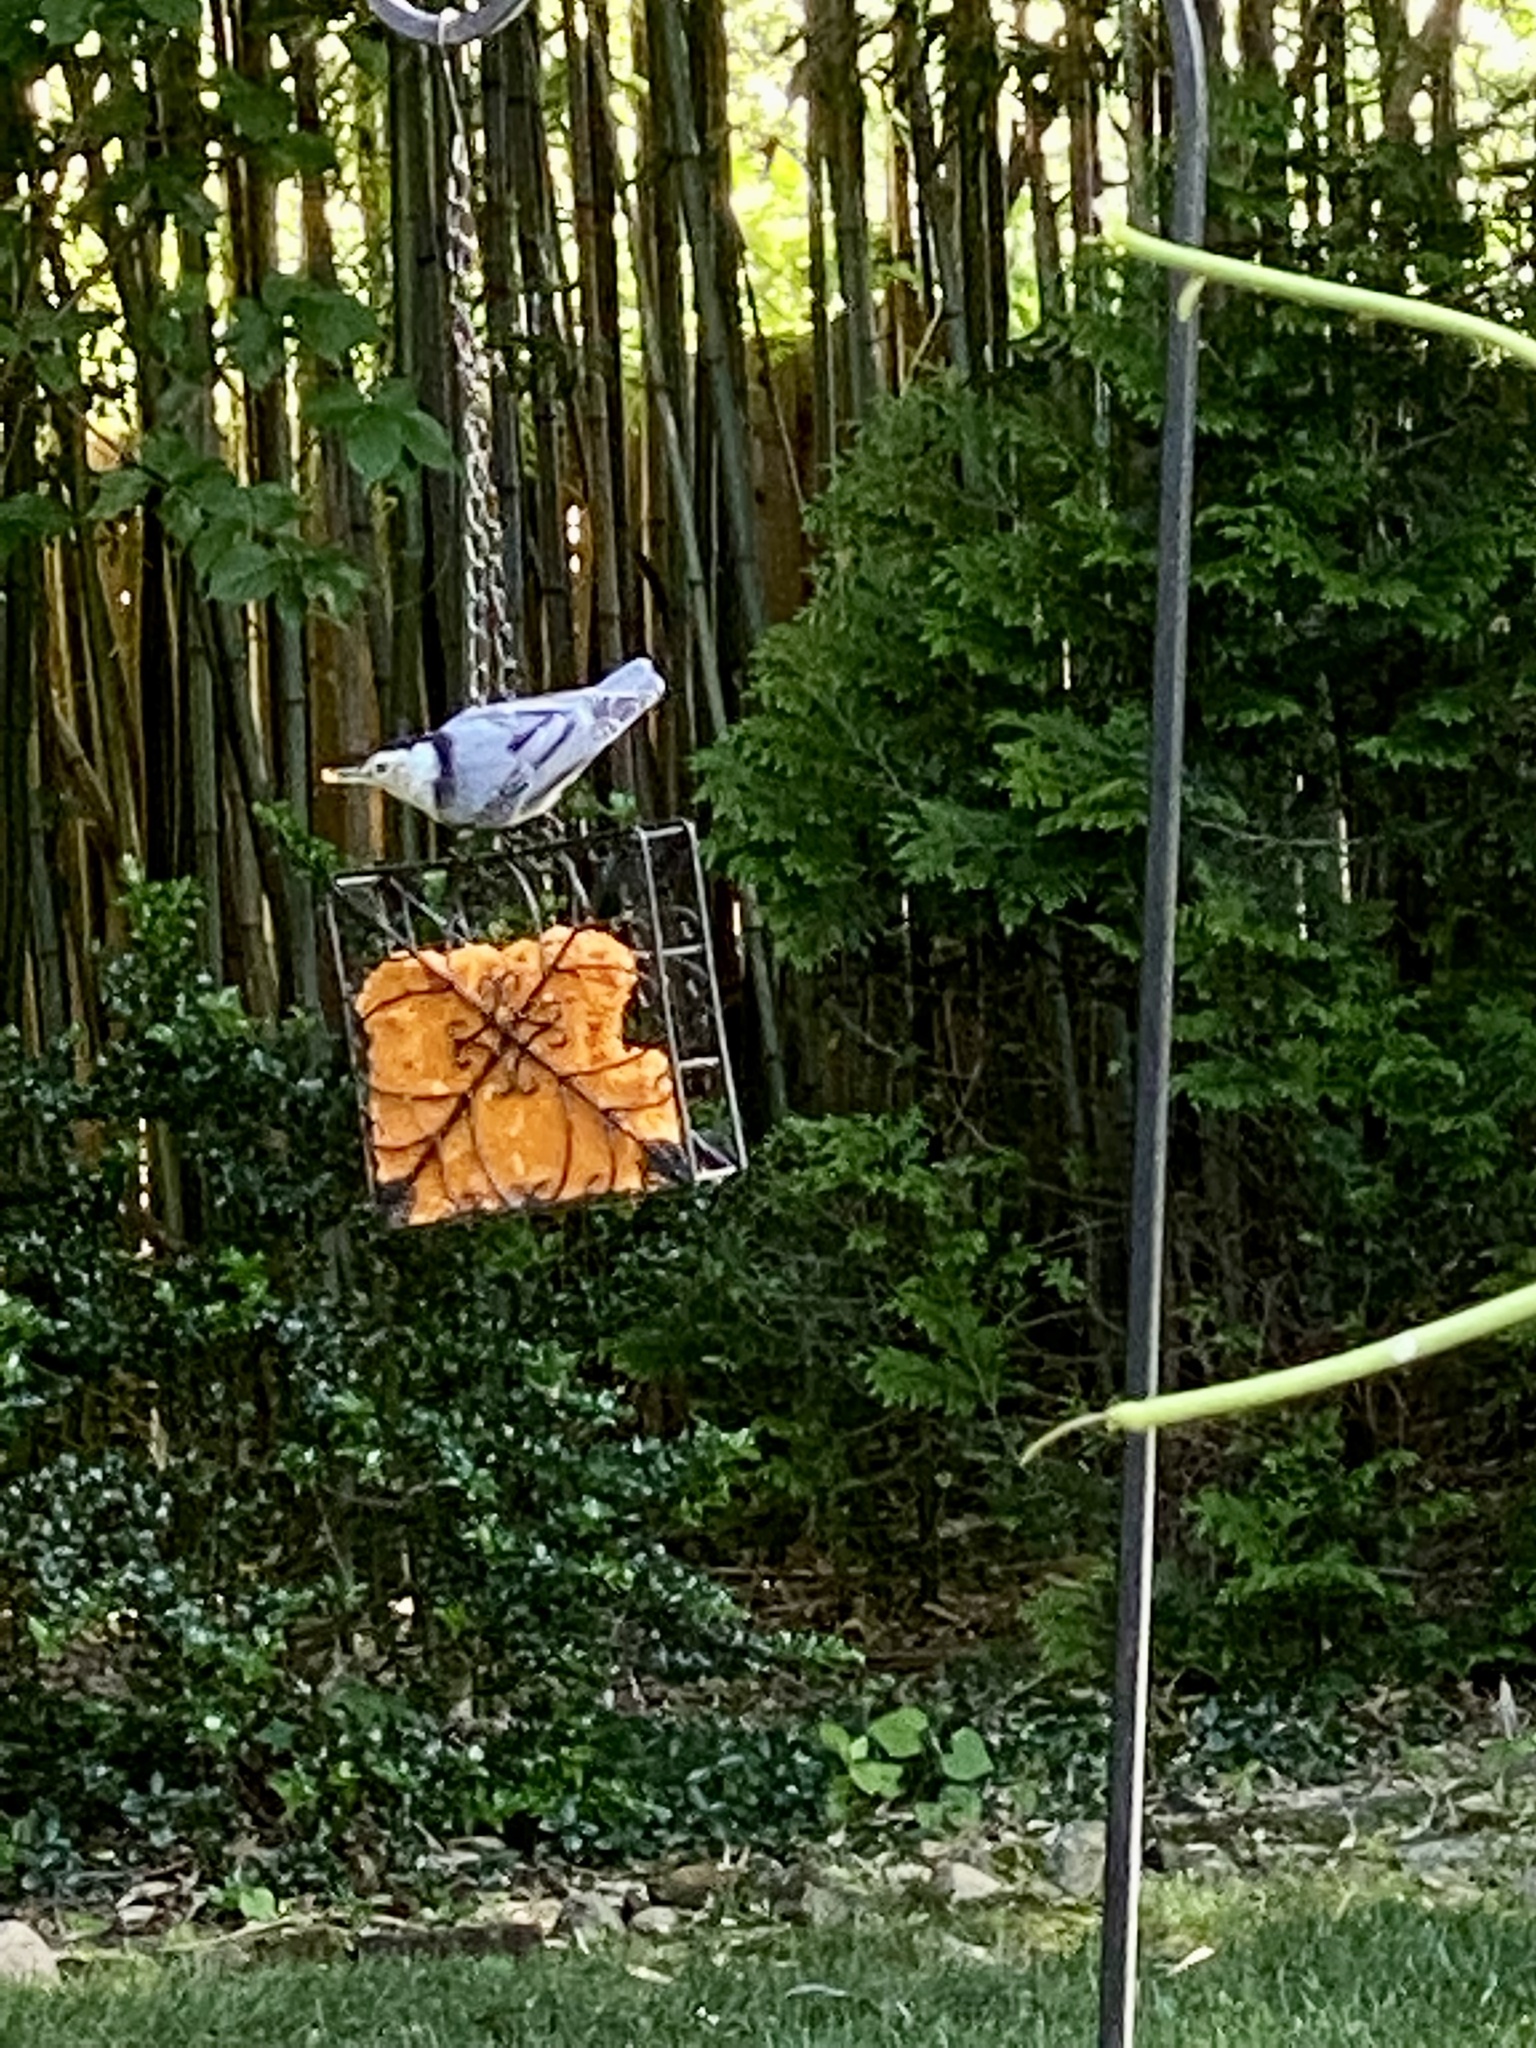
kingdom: Animalia
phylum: Chordata
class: Aves
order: Passeriformes
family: Sittidae
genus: Sitta
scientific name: Sitta carolinensis
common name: White-breasted nuthatch
